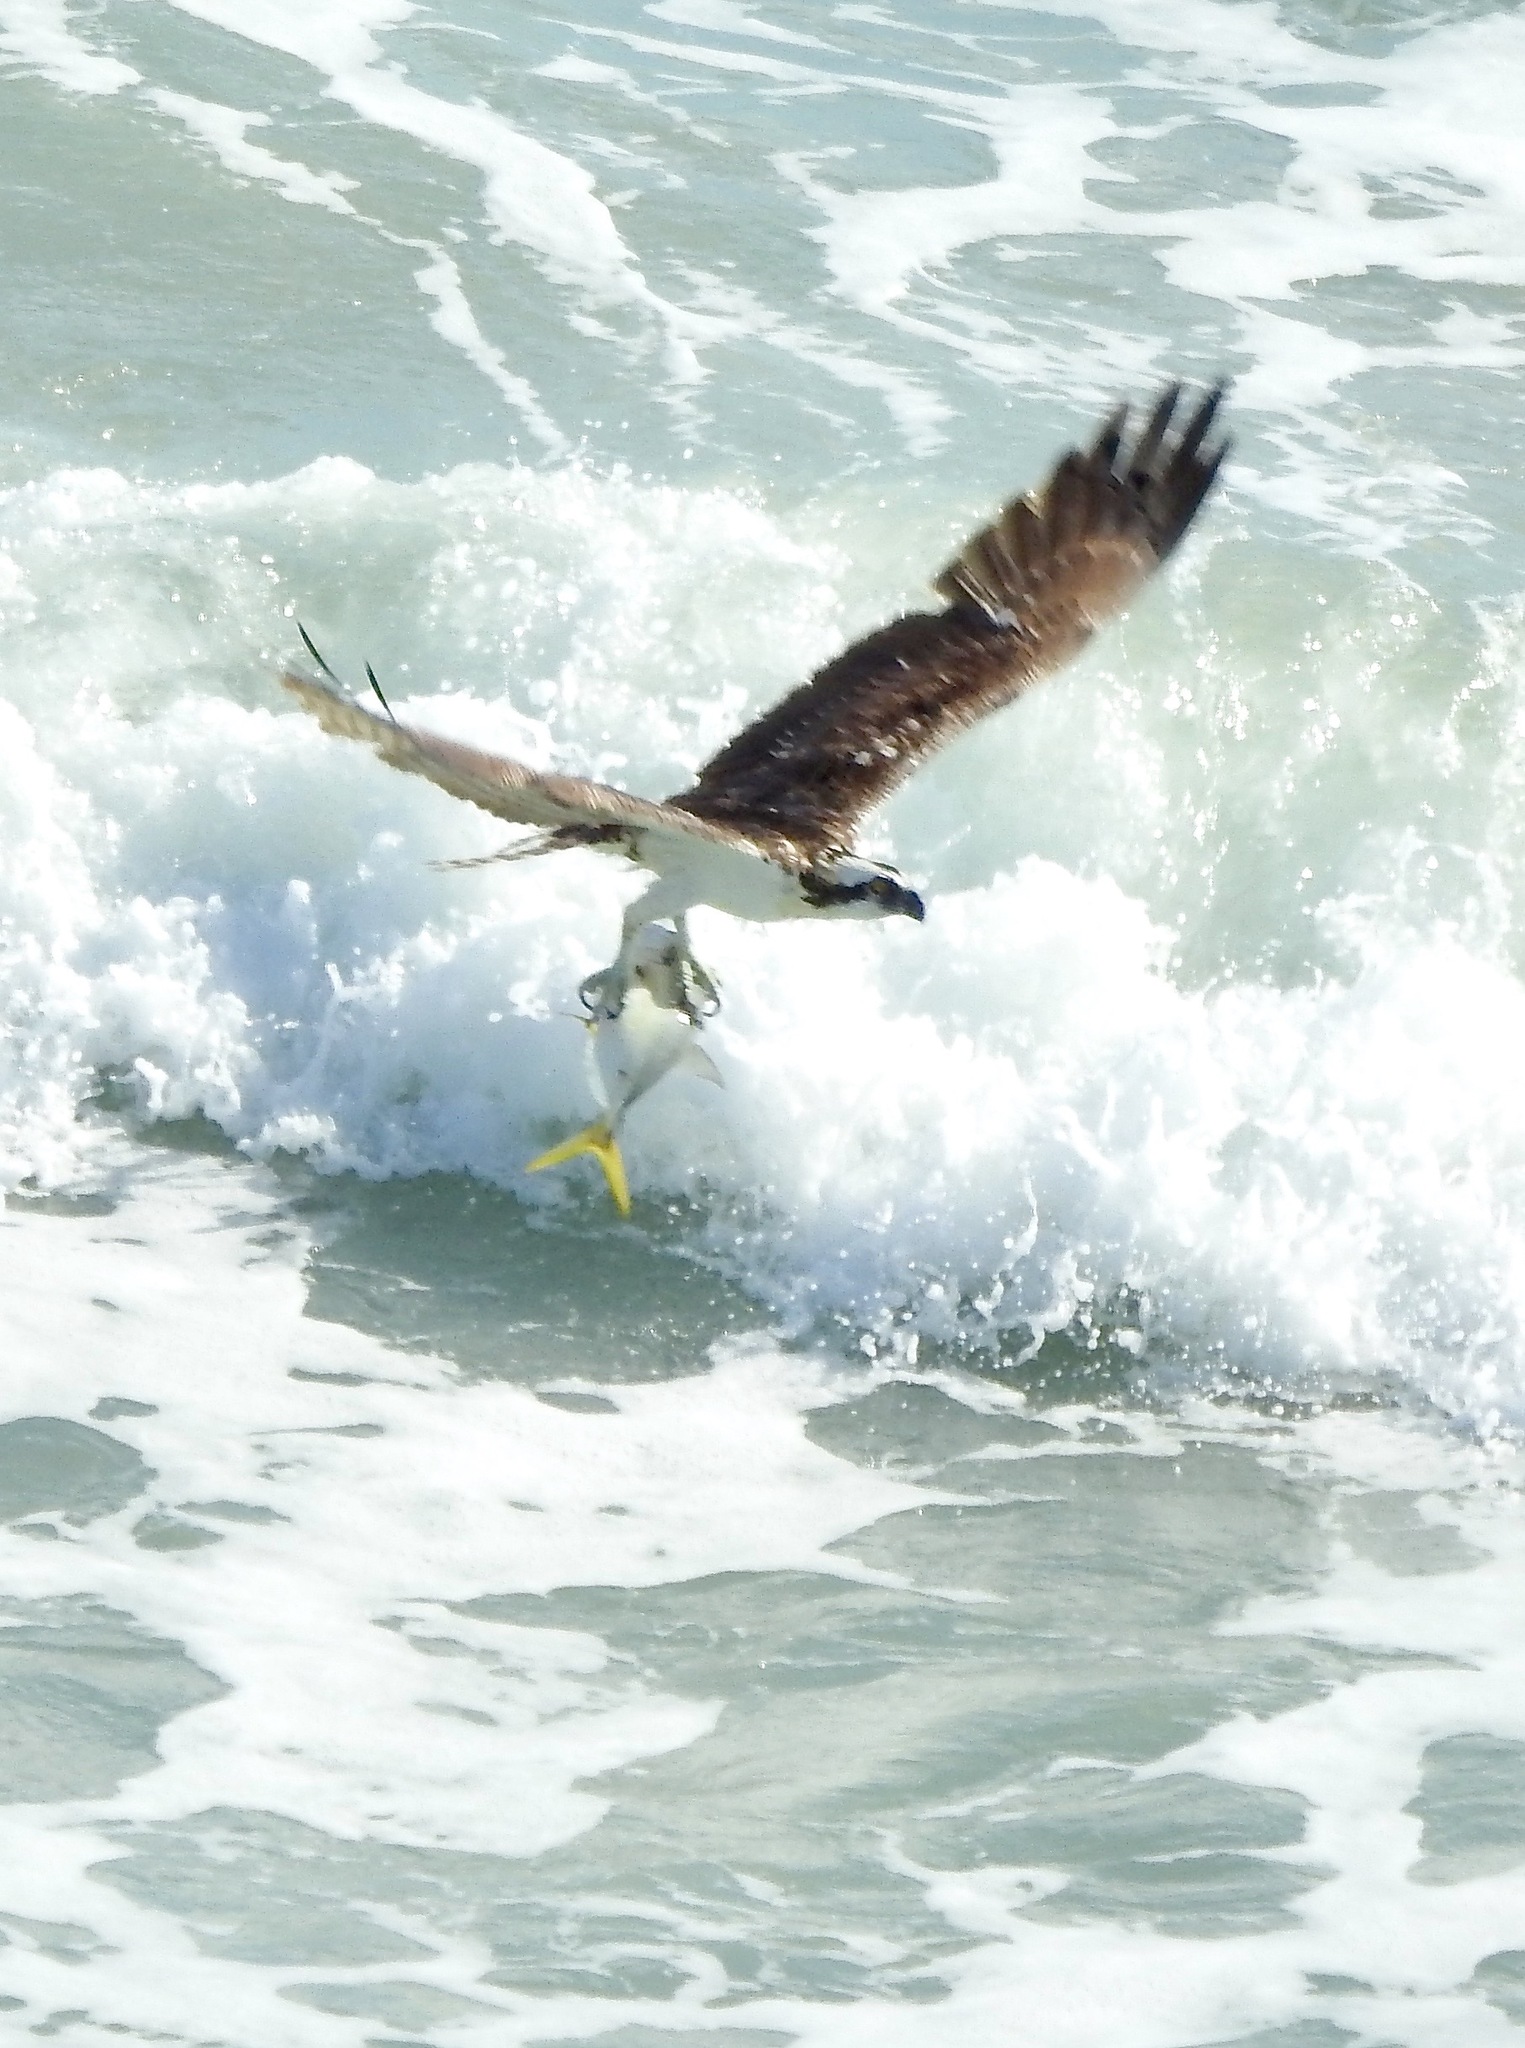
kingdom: Animalia
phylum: Chordata
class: Aves
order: Accipitriformes
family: Pandionidae
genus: Pandion
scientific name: Pandion haliaetus
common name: Osprey
